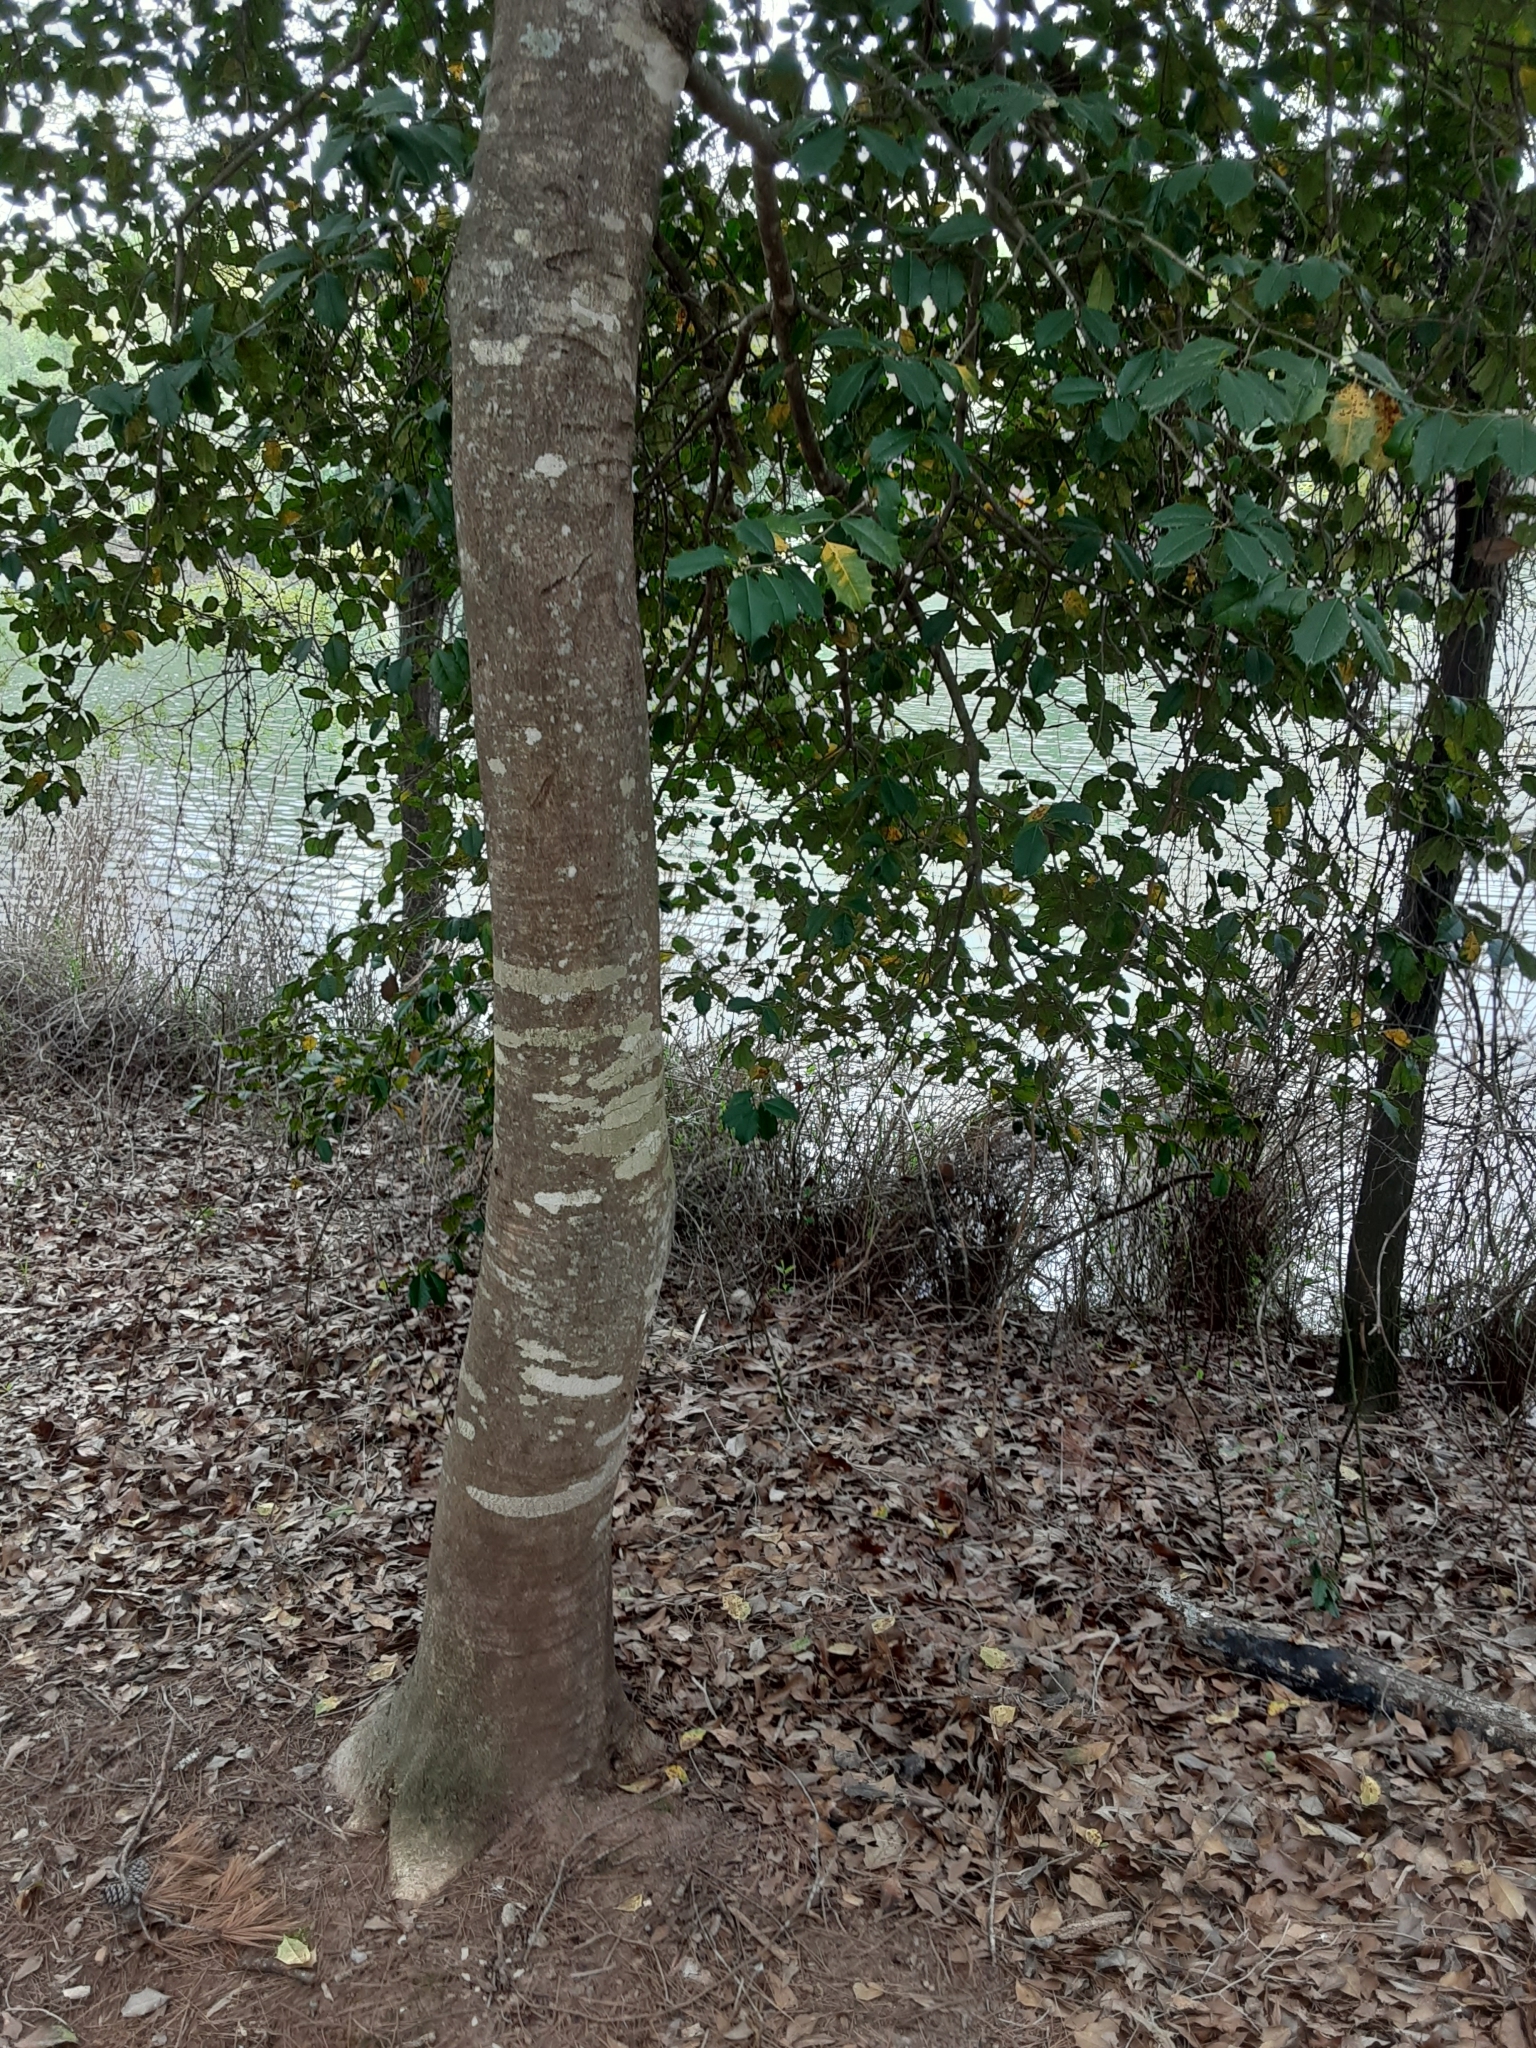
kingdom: Plantae
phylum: Tracheophyta
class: Magnoliopsida
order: Aquifoliales
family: Aquifoliaceae
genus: Ilex
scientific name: Ilex opaca
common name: American holly
